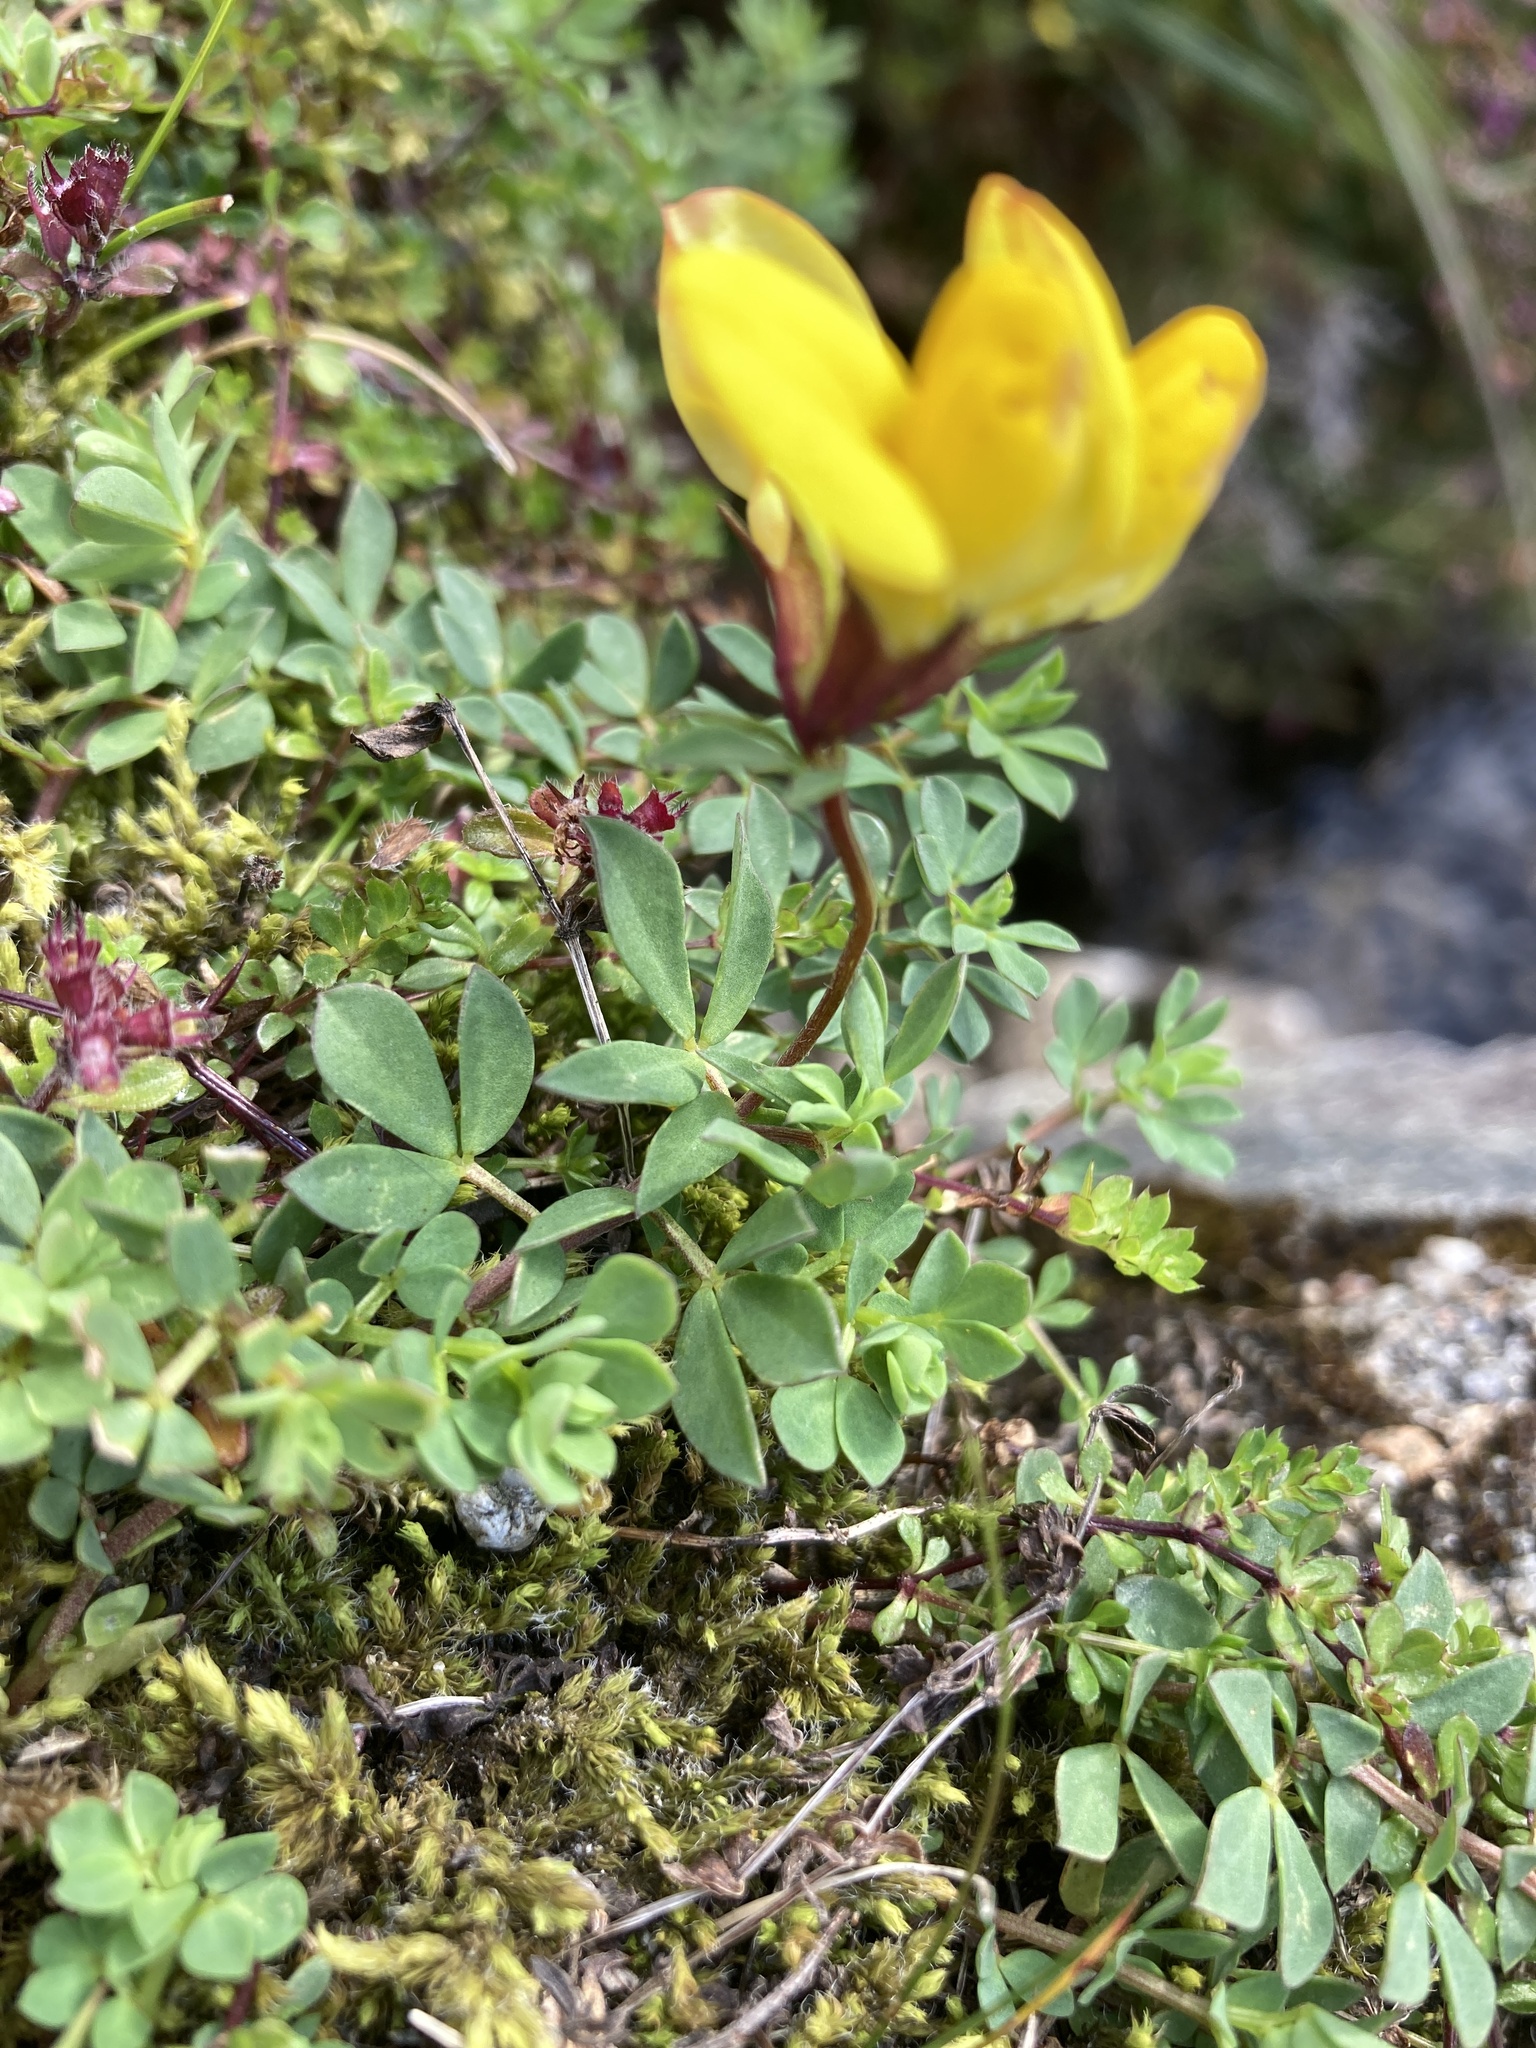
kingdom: Plantae
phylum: Tracheophyta
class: Magnoliopsida
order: Fabales
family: Fabaceae
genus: Lotus
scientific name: Lotus corniculatus
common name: Common bird's-foot-trefoil
